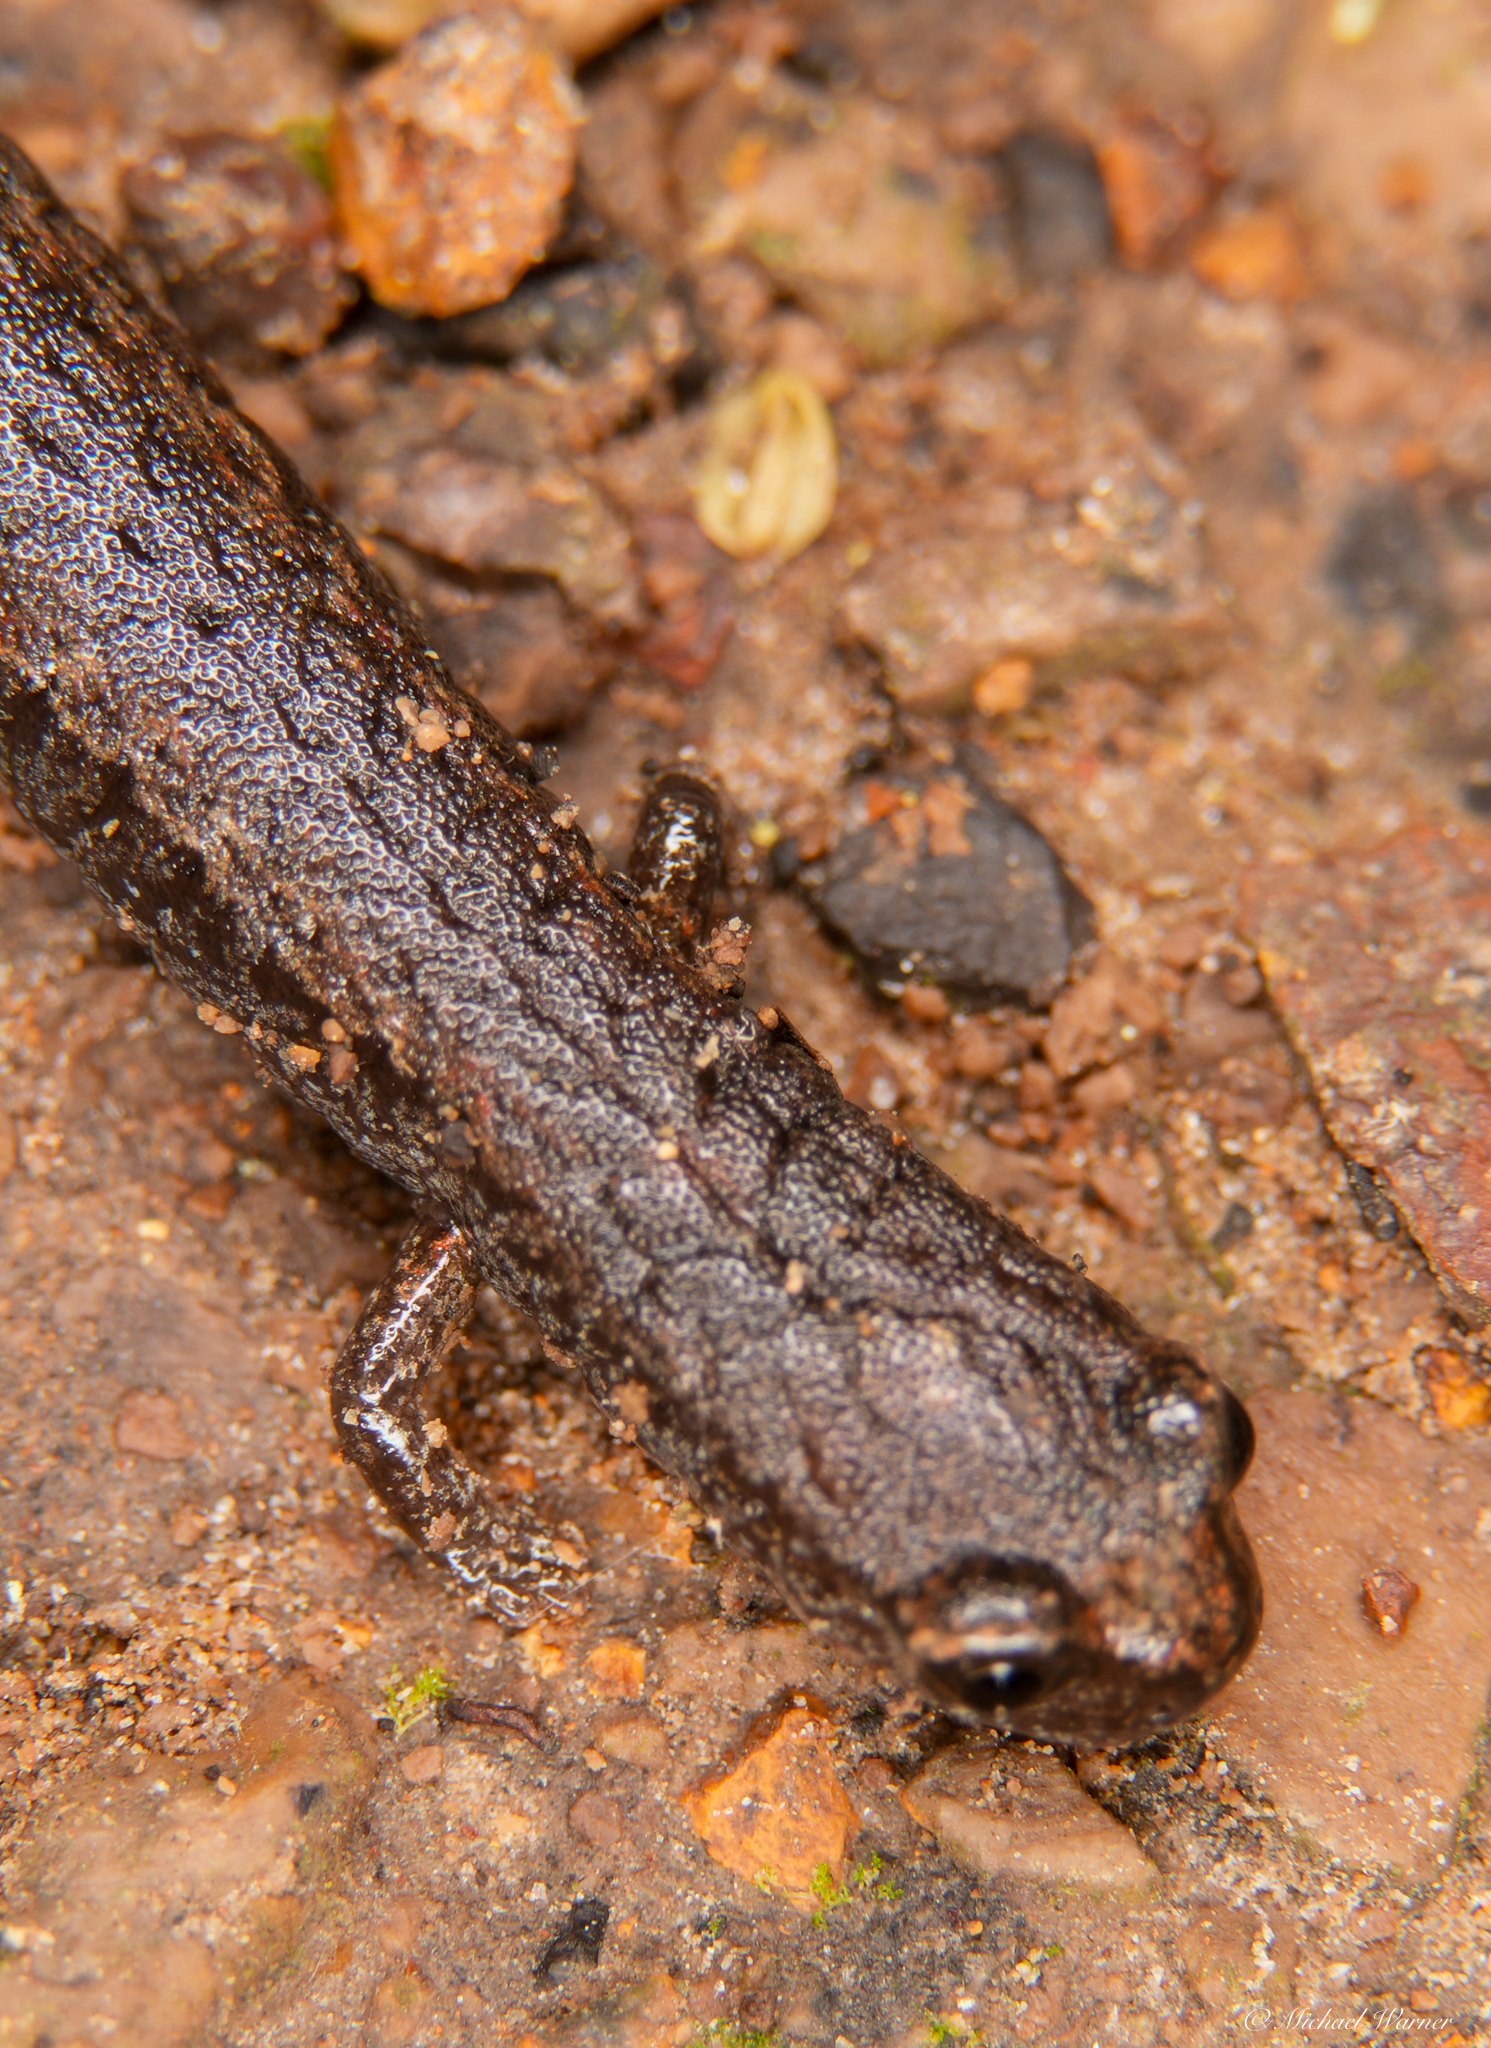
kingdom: Animalia
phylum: Chordata
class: Amphibia
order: Caudata
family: Plethodontidae
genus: Batrachoseps
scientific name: Batrachoseps attenuatus
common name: California slender salamander
